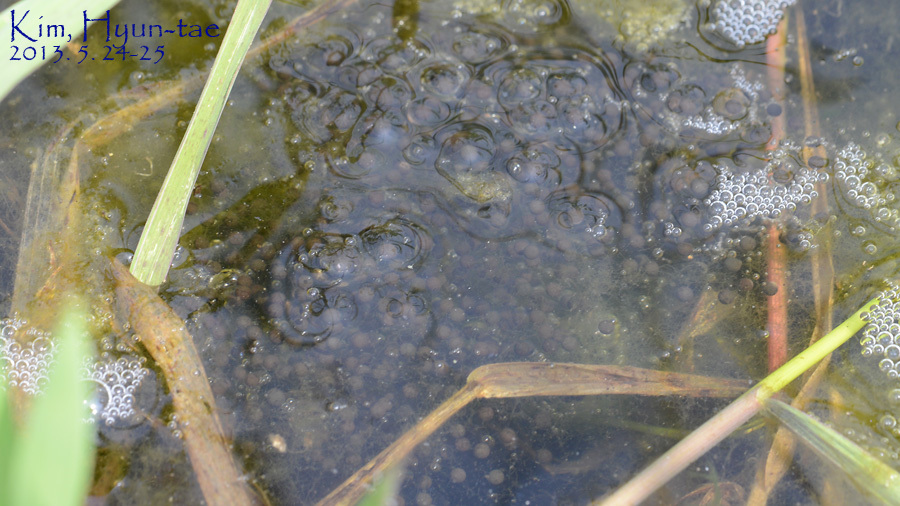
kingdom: Animalia
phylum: Chordata
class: Amphibia
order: Anura
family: Ranidae
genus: Pelophylax
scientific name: Pelophylax nigromaculatus
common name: Black-spotted pond frog
